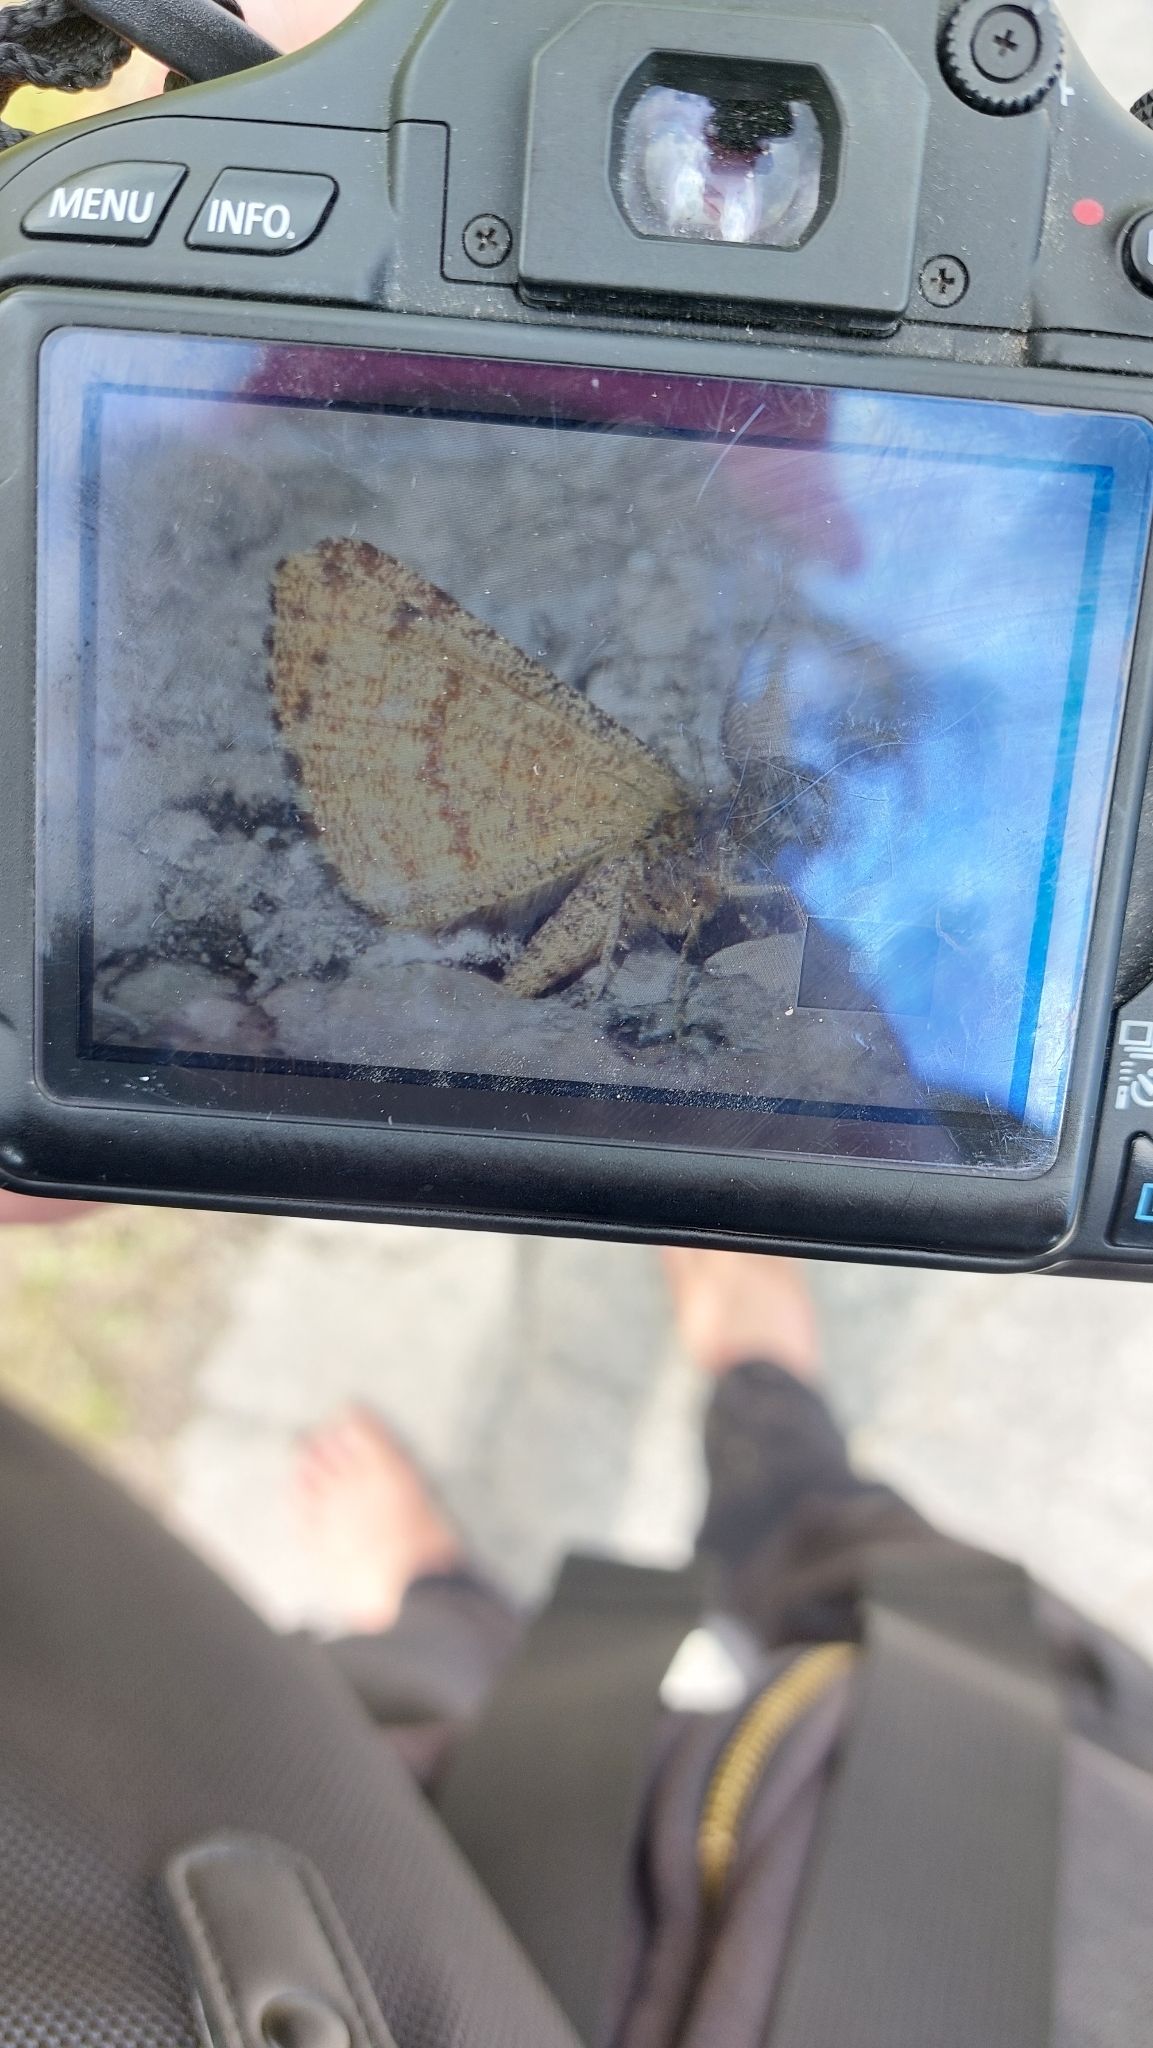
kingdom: Animalia
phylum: Arthropoda
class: Insecta
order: Lepidoptera
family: Geometridae
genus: Ematurga
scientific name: Ematurga atomaria
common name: Common heath
